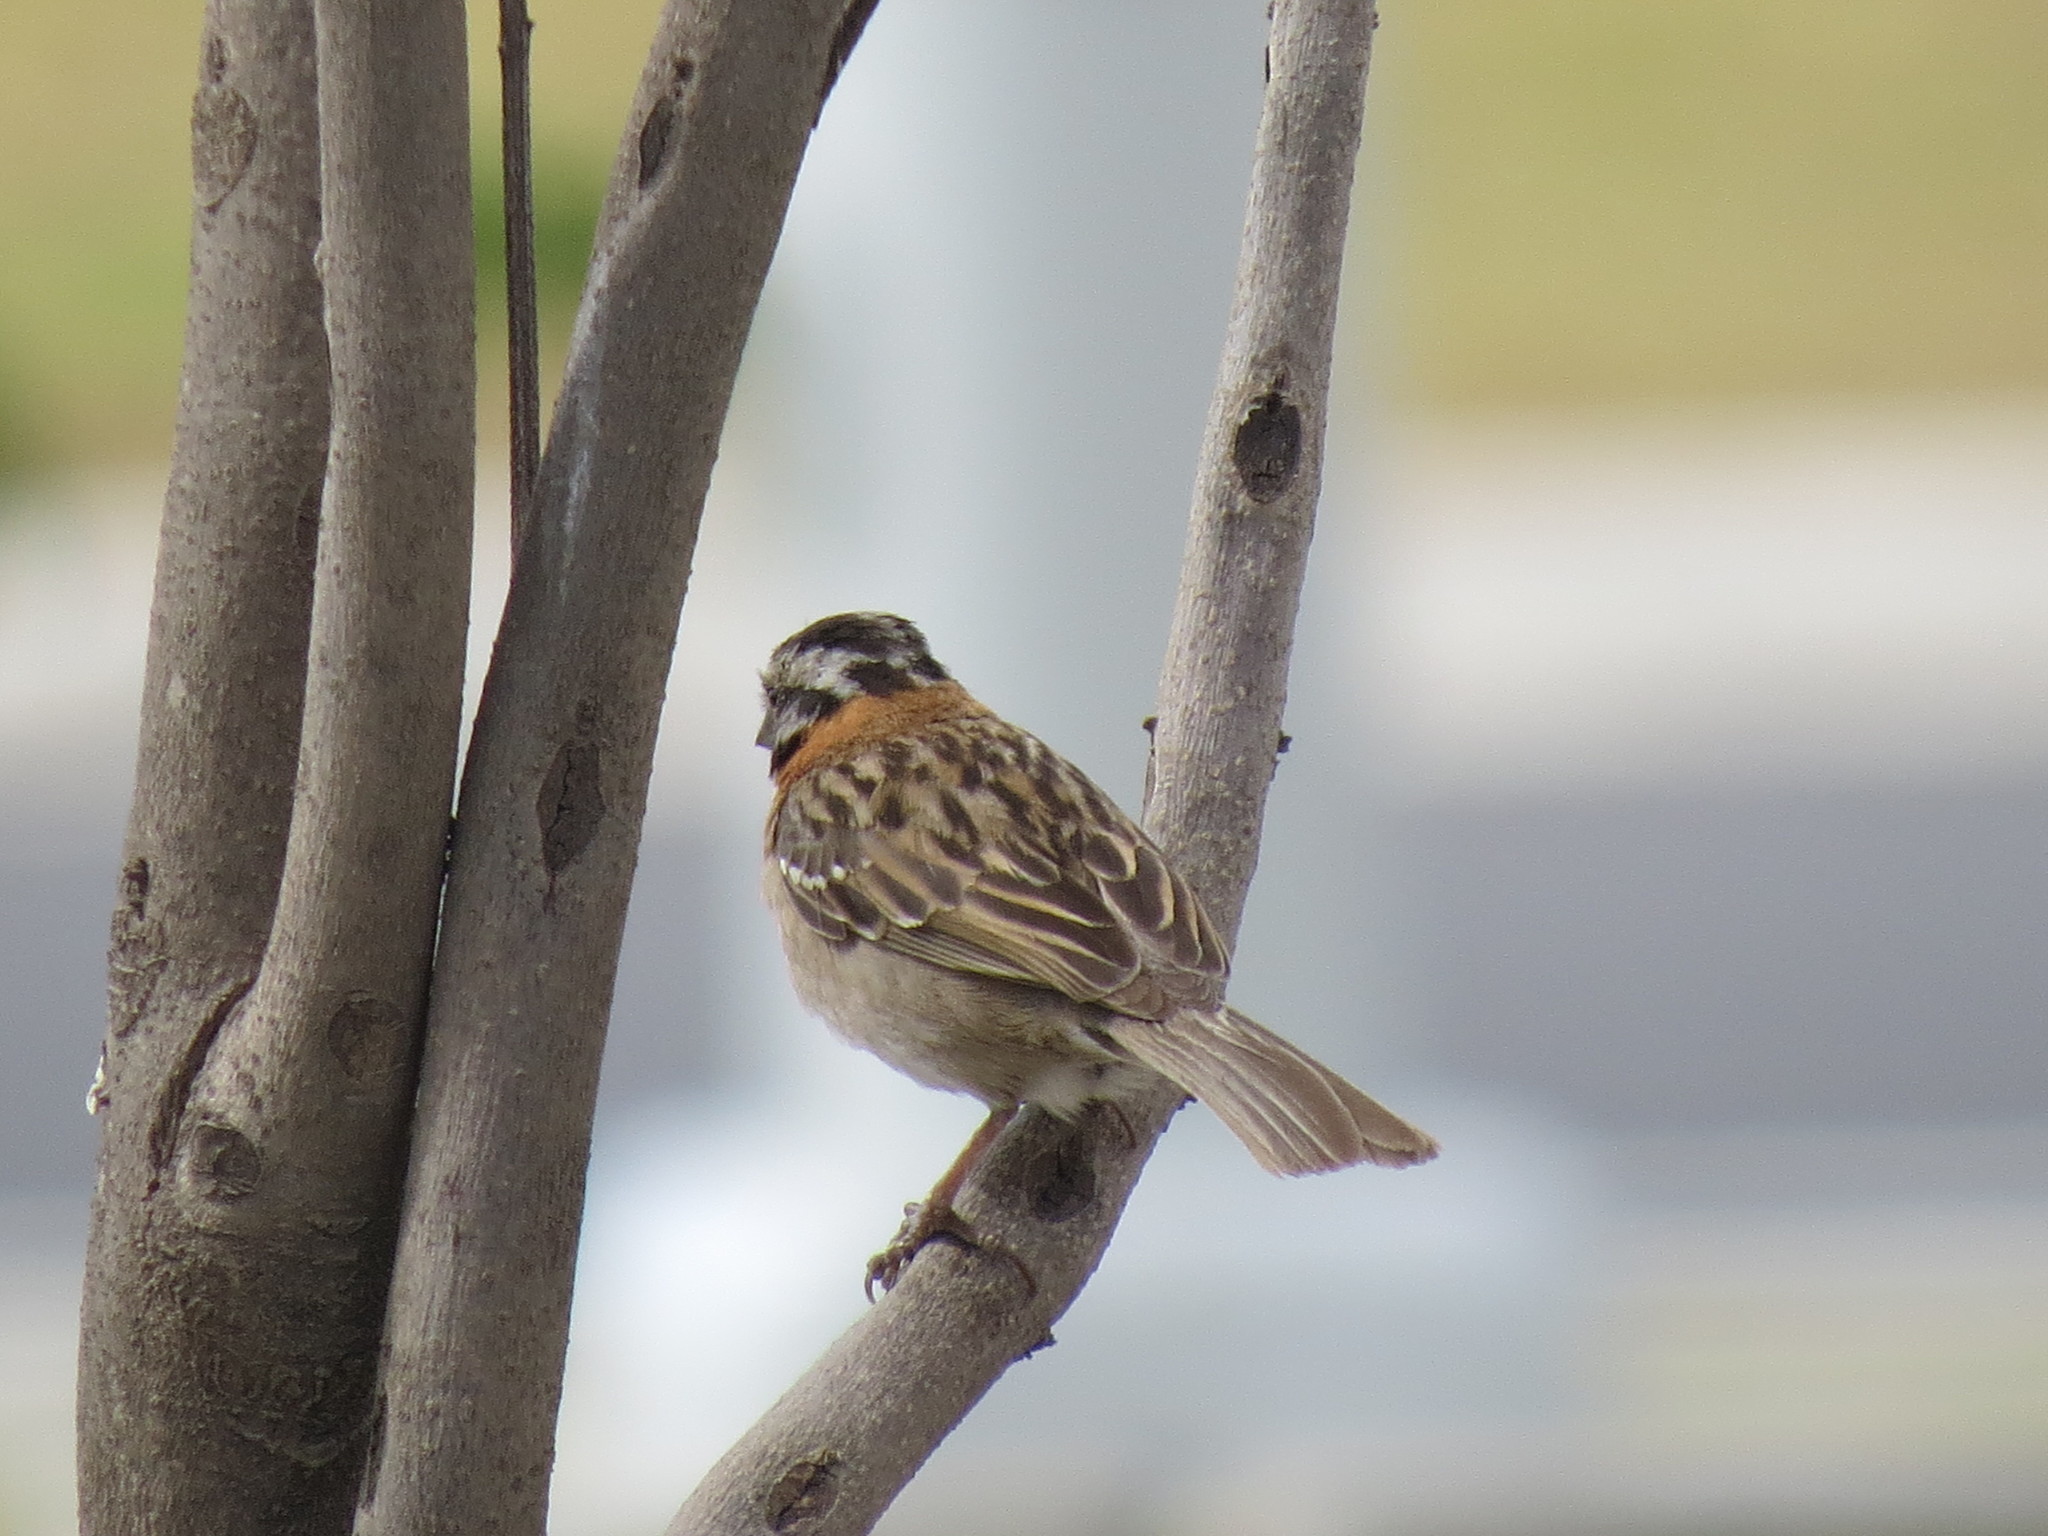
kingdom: Animalia
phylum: Chordata
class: Aves
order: Passeriformes
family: Passerellidae
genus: Zonotrichia
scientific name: Zonotrichia capensis
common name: Rufous-collared sparrow
